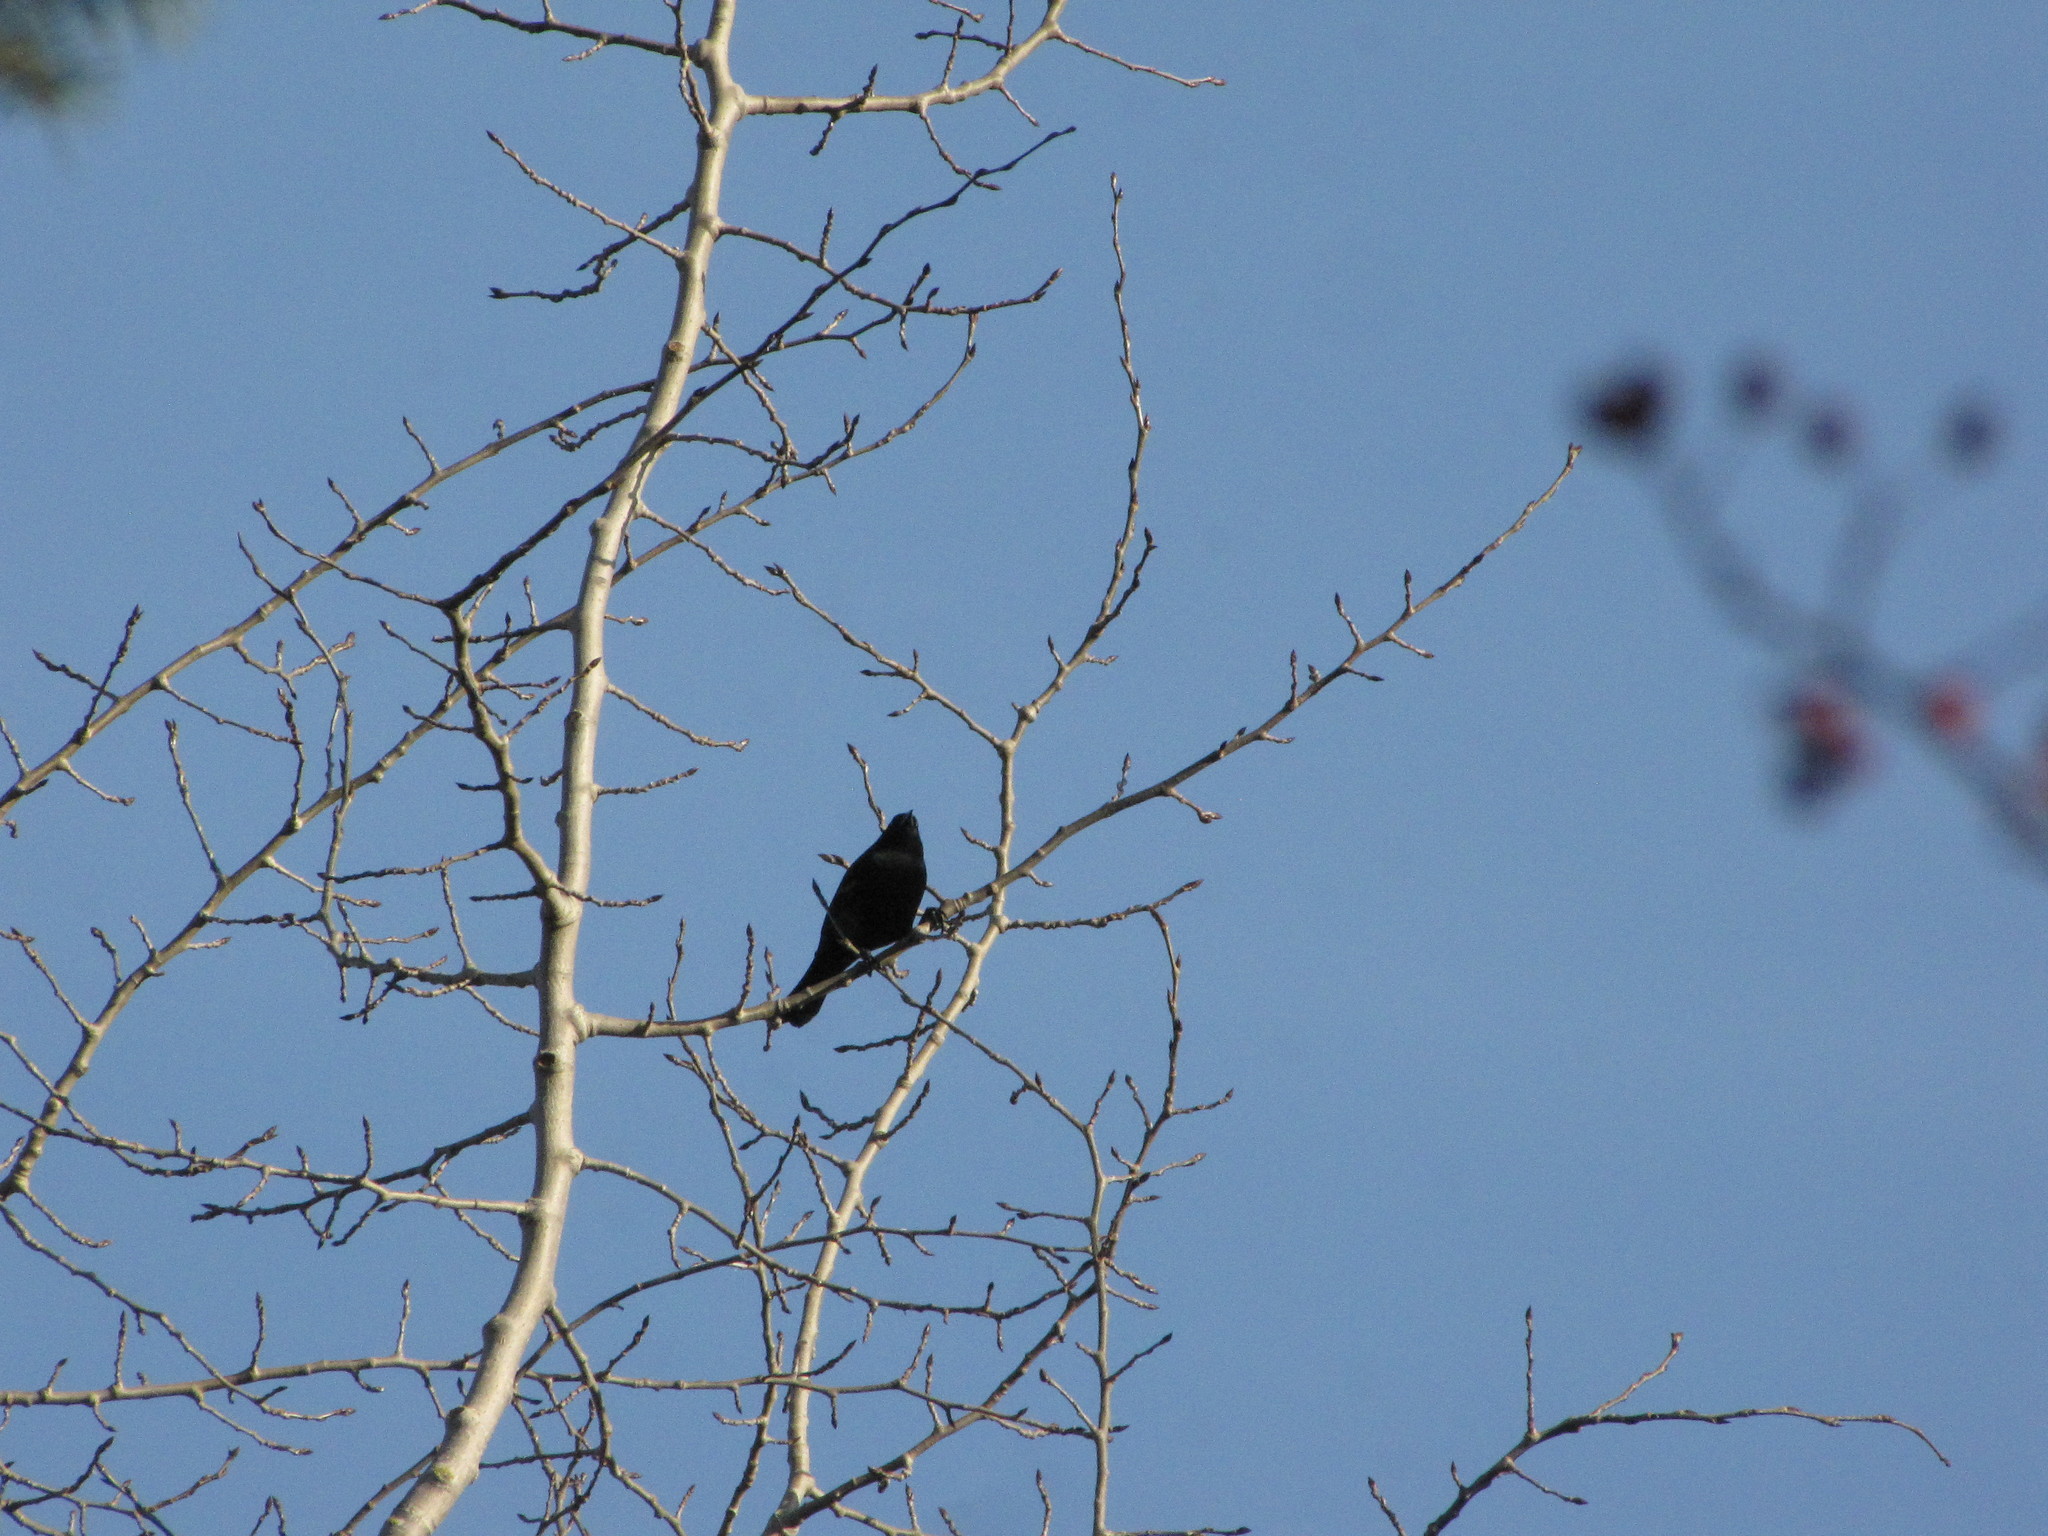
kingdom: Animalia
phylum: Chordata
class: Aves
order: Passeriformes
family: Icteridae
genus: Euphagus
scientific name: Euphagus cyanocephalus
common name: Brewer's blackbird
